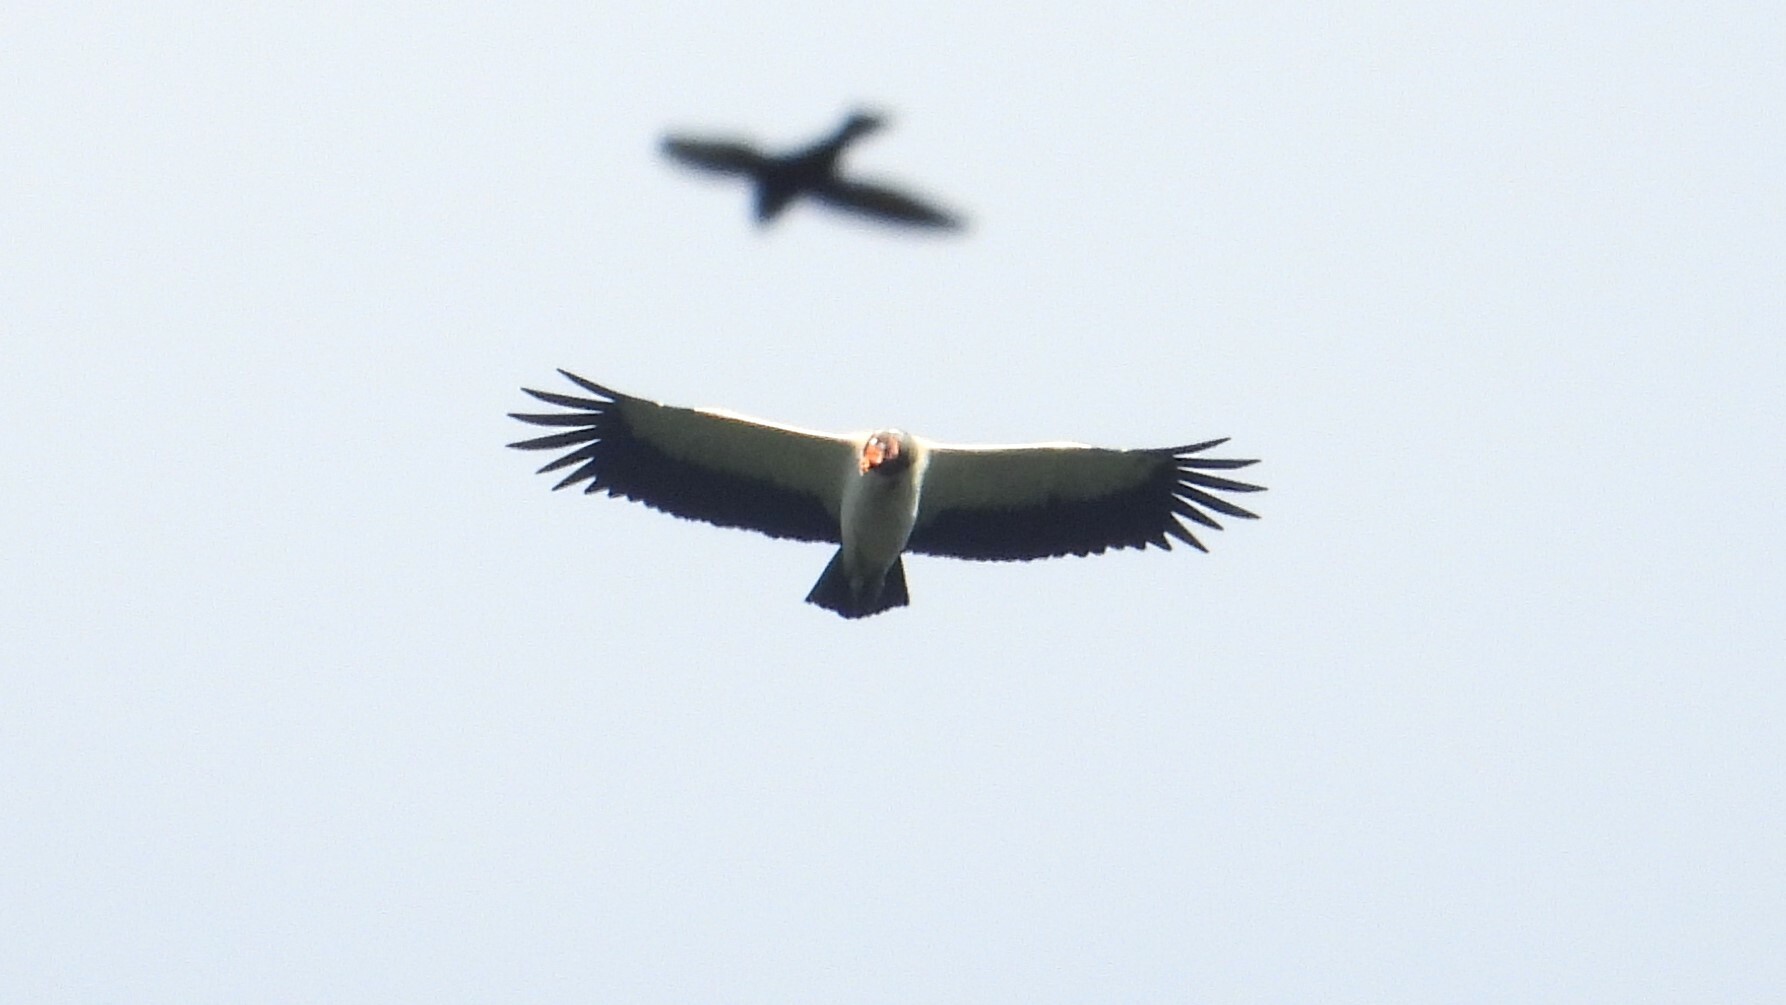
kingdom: Animalia
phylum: Chordata
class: Aves
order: Accipitriformes
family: Cathartidae
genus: Sarcoramphus
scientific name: Sarcoramphus papa
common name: King vulture
